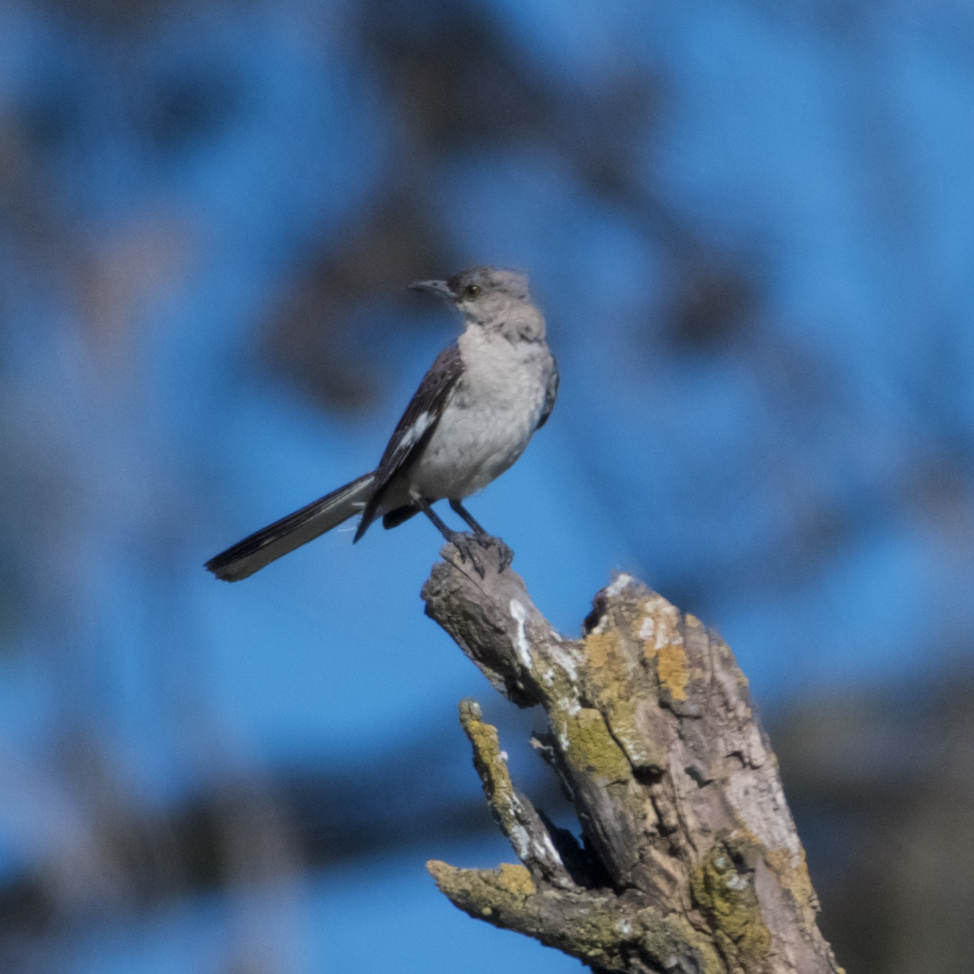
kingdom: Animalia
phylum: Chordata
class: Aves
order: Passeriformes
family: Mimidae
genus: Mimus
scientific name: Mimus polyglottos
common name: Northern mockingbird
